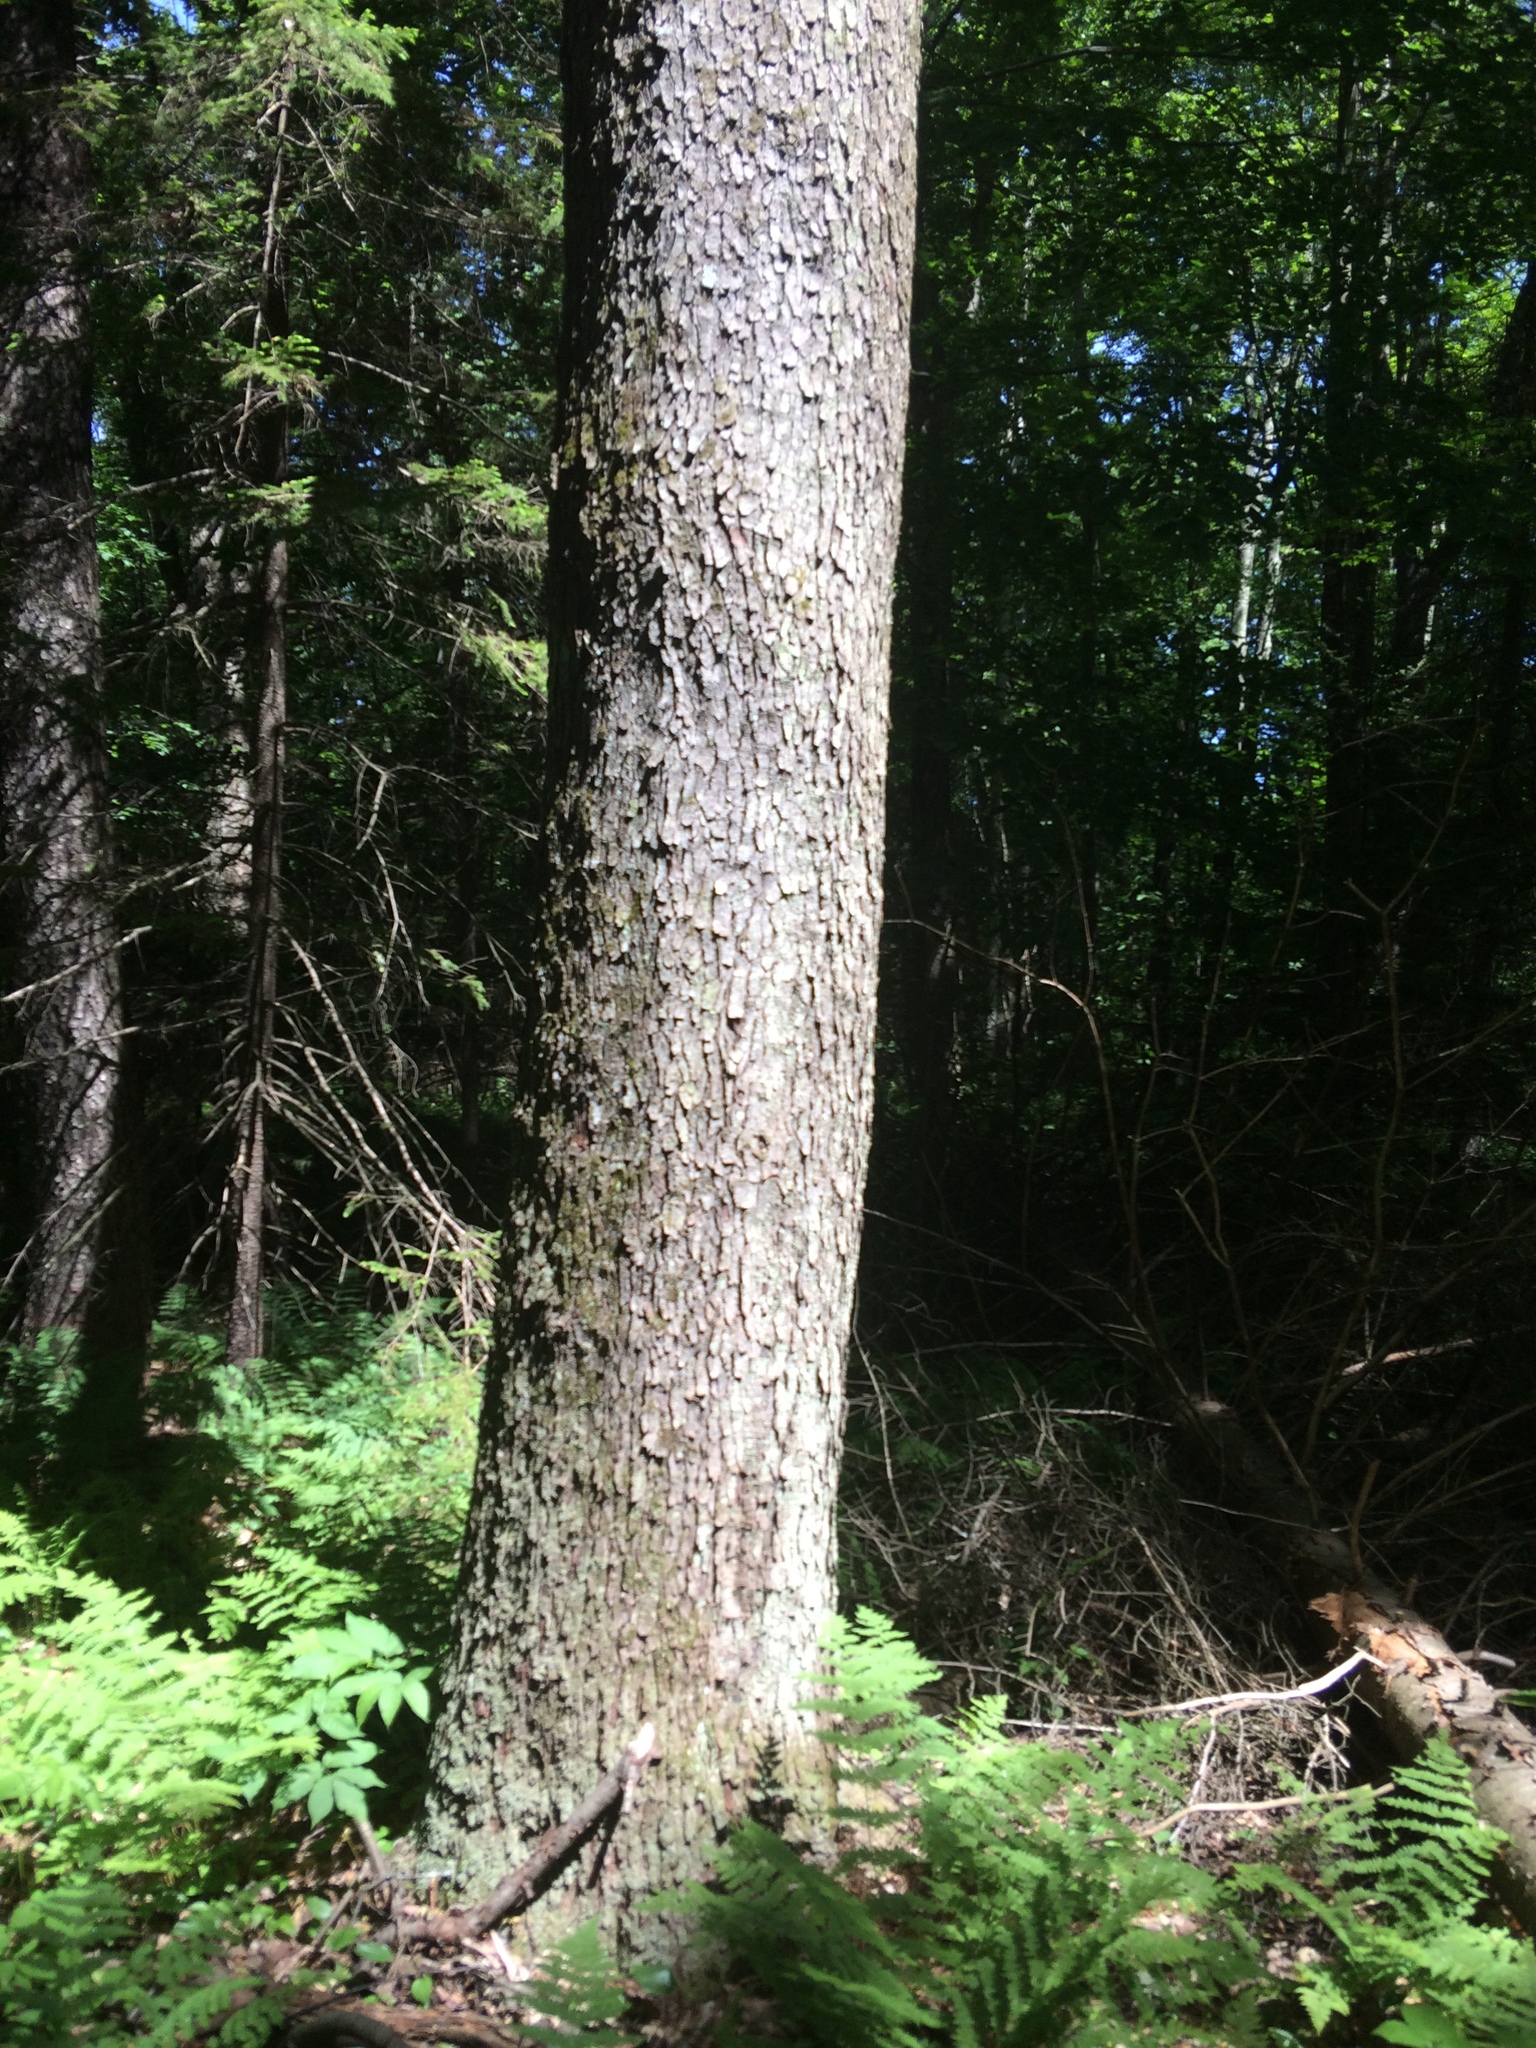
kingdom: Plantae
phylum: Tracheophyta
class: Magnoliopsida
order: Rosales
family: Rosaceae
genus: Prunus
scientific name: Prunus serotina
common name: Black cherry
